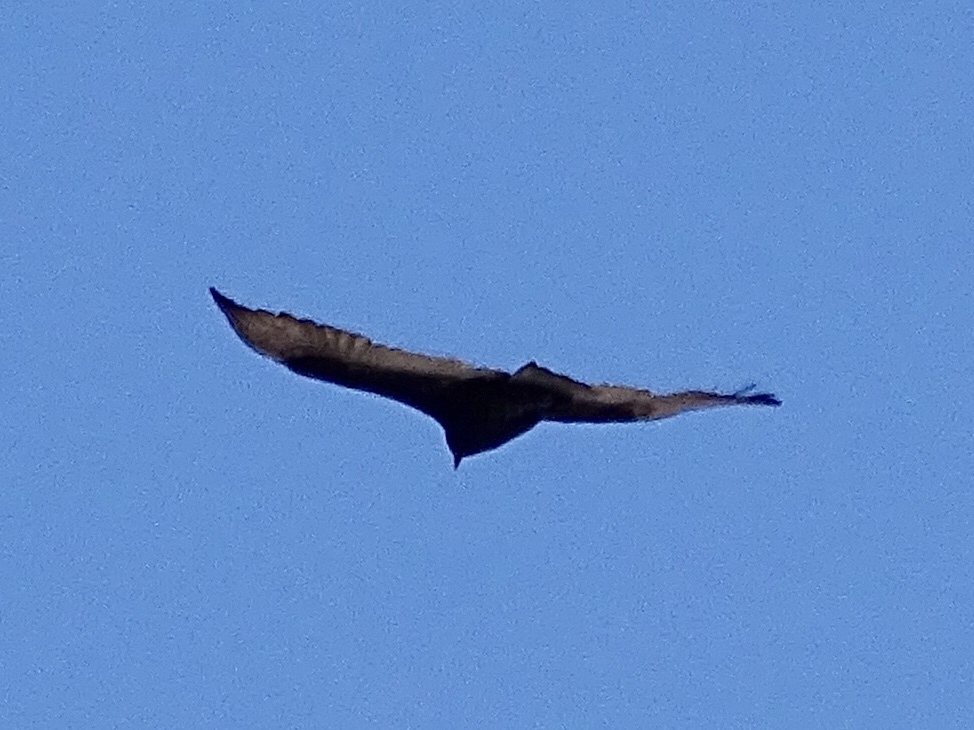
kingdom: Animalia
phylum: Chordata
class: Aves
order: Accipitriformes
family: Cathartidae
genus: Cathartes
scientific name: Cathartes aura
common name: Turkey vulture
